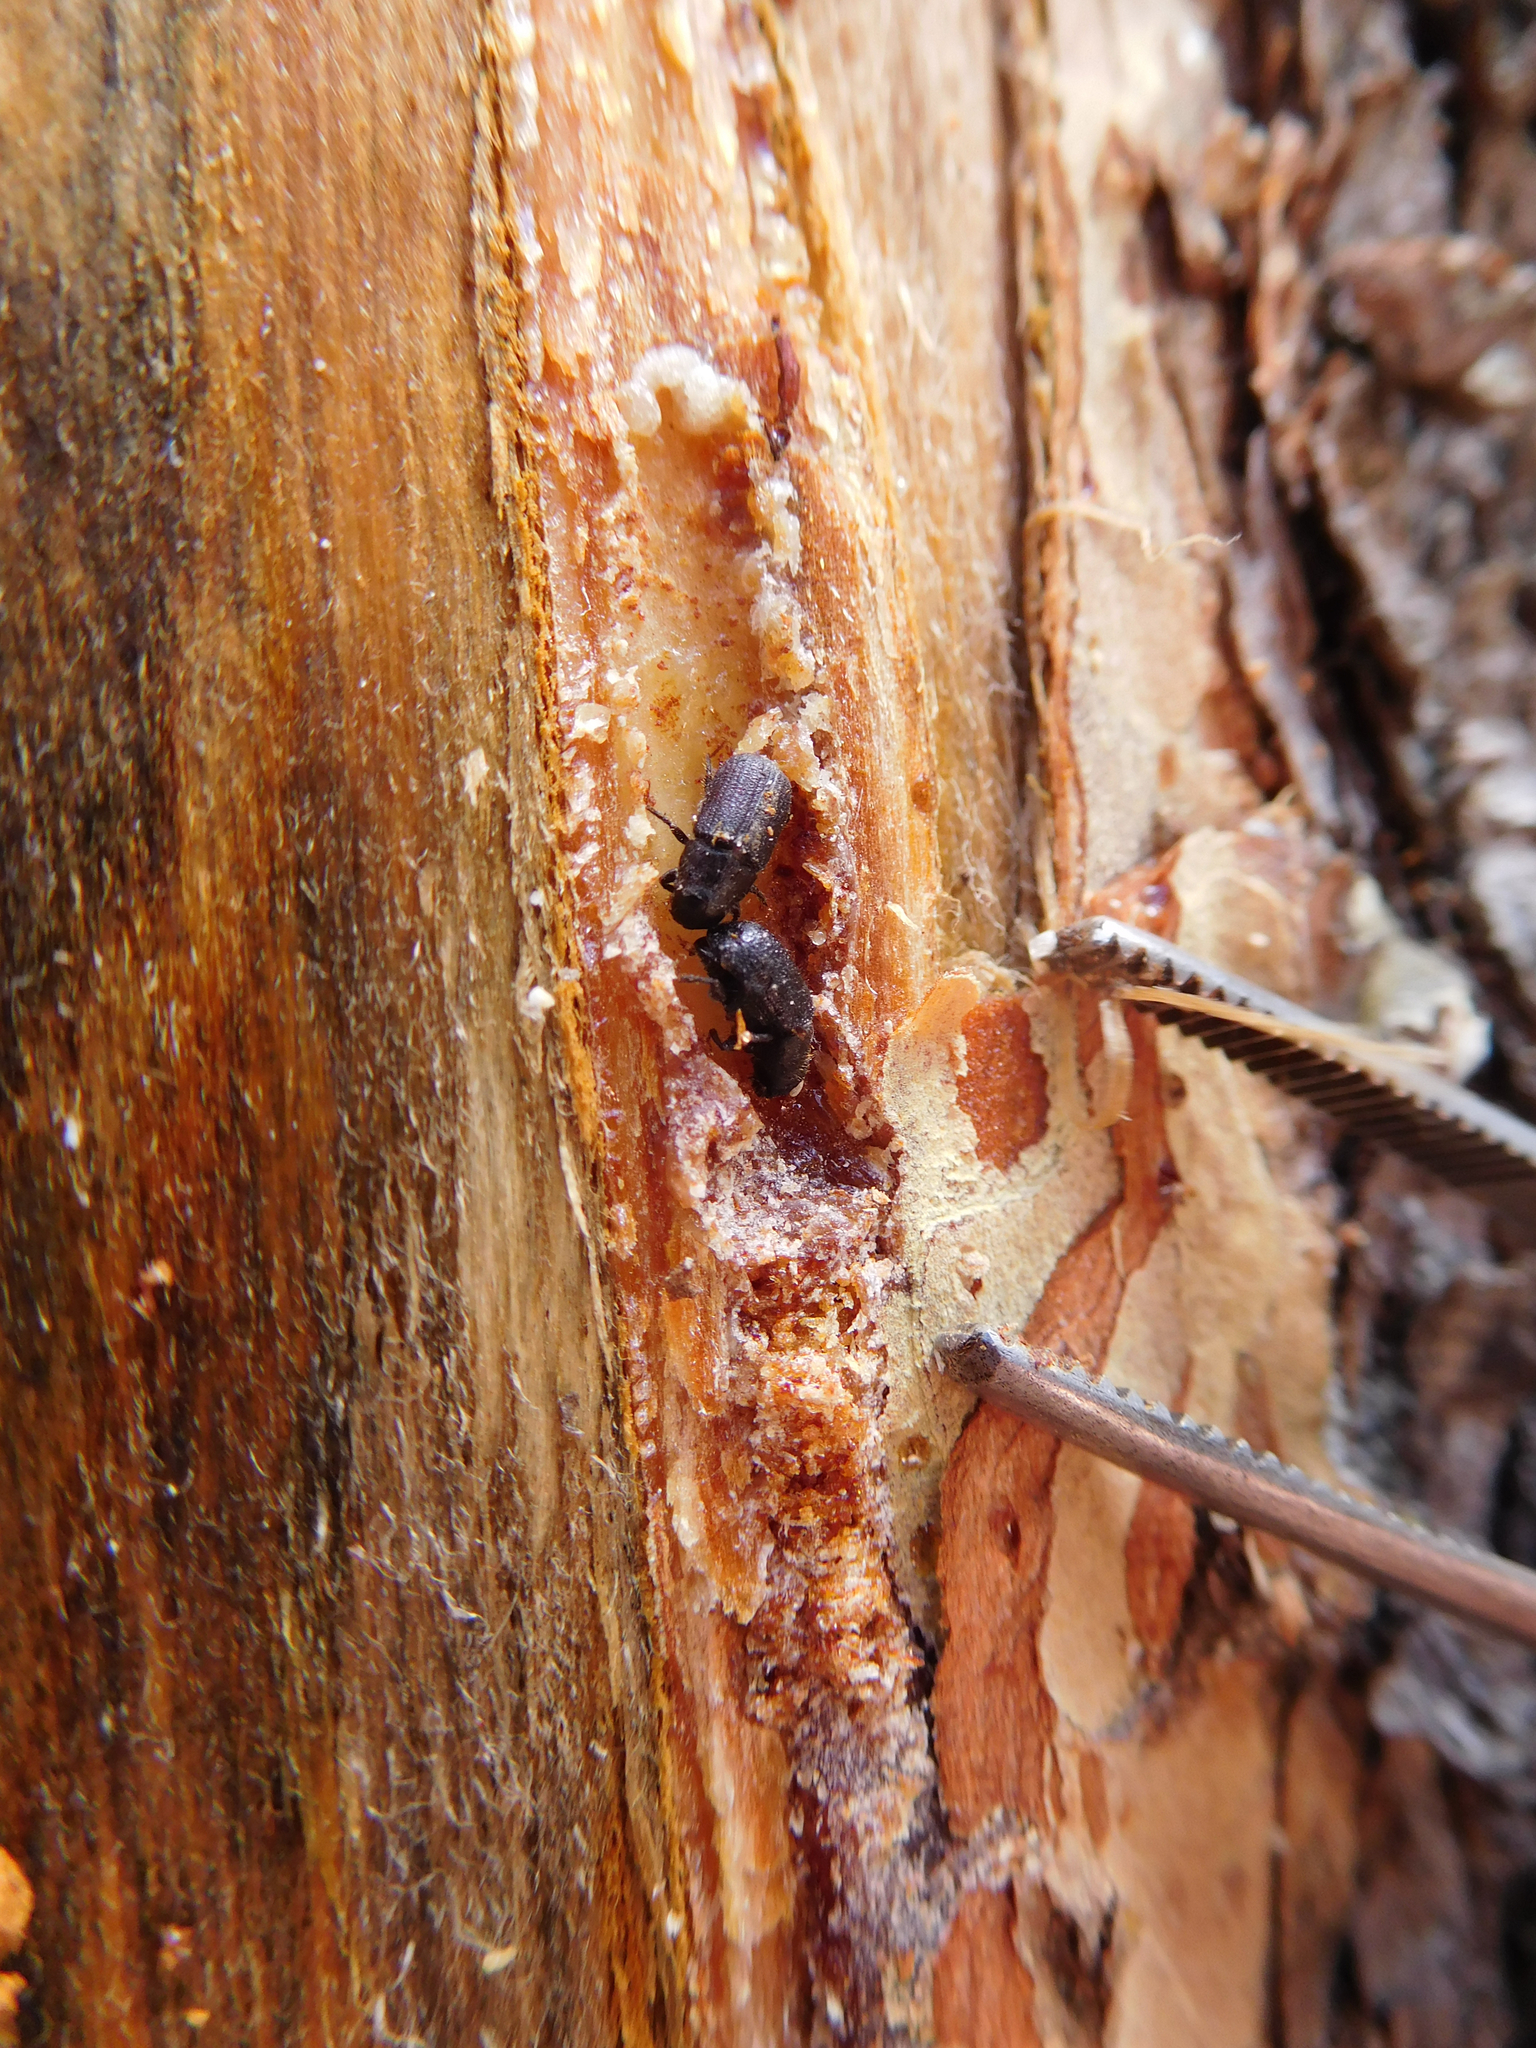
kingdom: Animalia
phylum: Arthropoda
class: Insecta
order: Coleoptera
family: Curculionidae
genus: Dendroctonus
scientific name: Dendroctonus ponderosae
